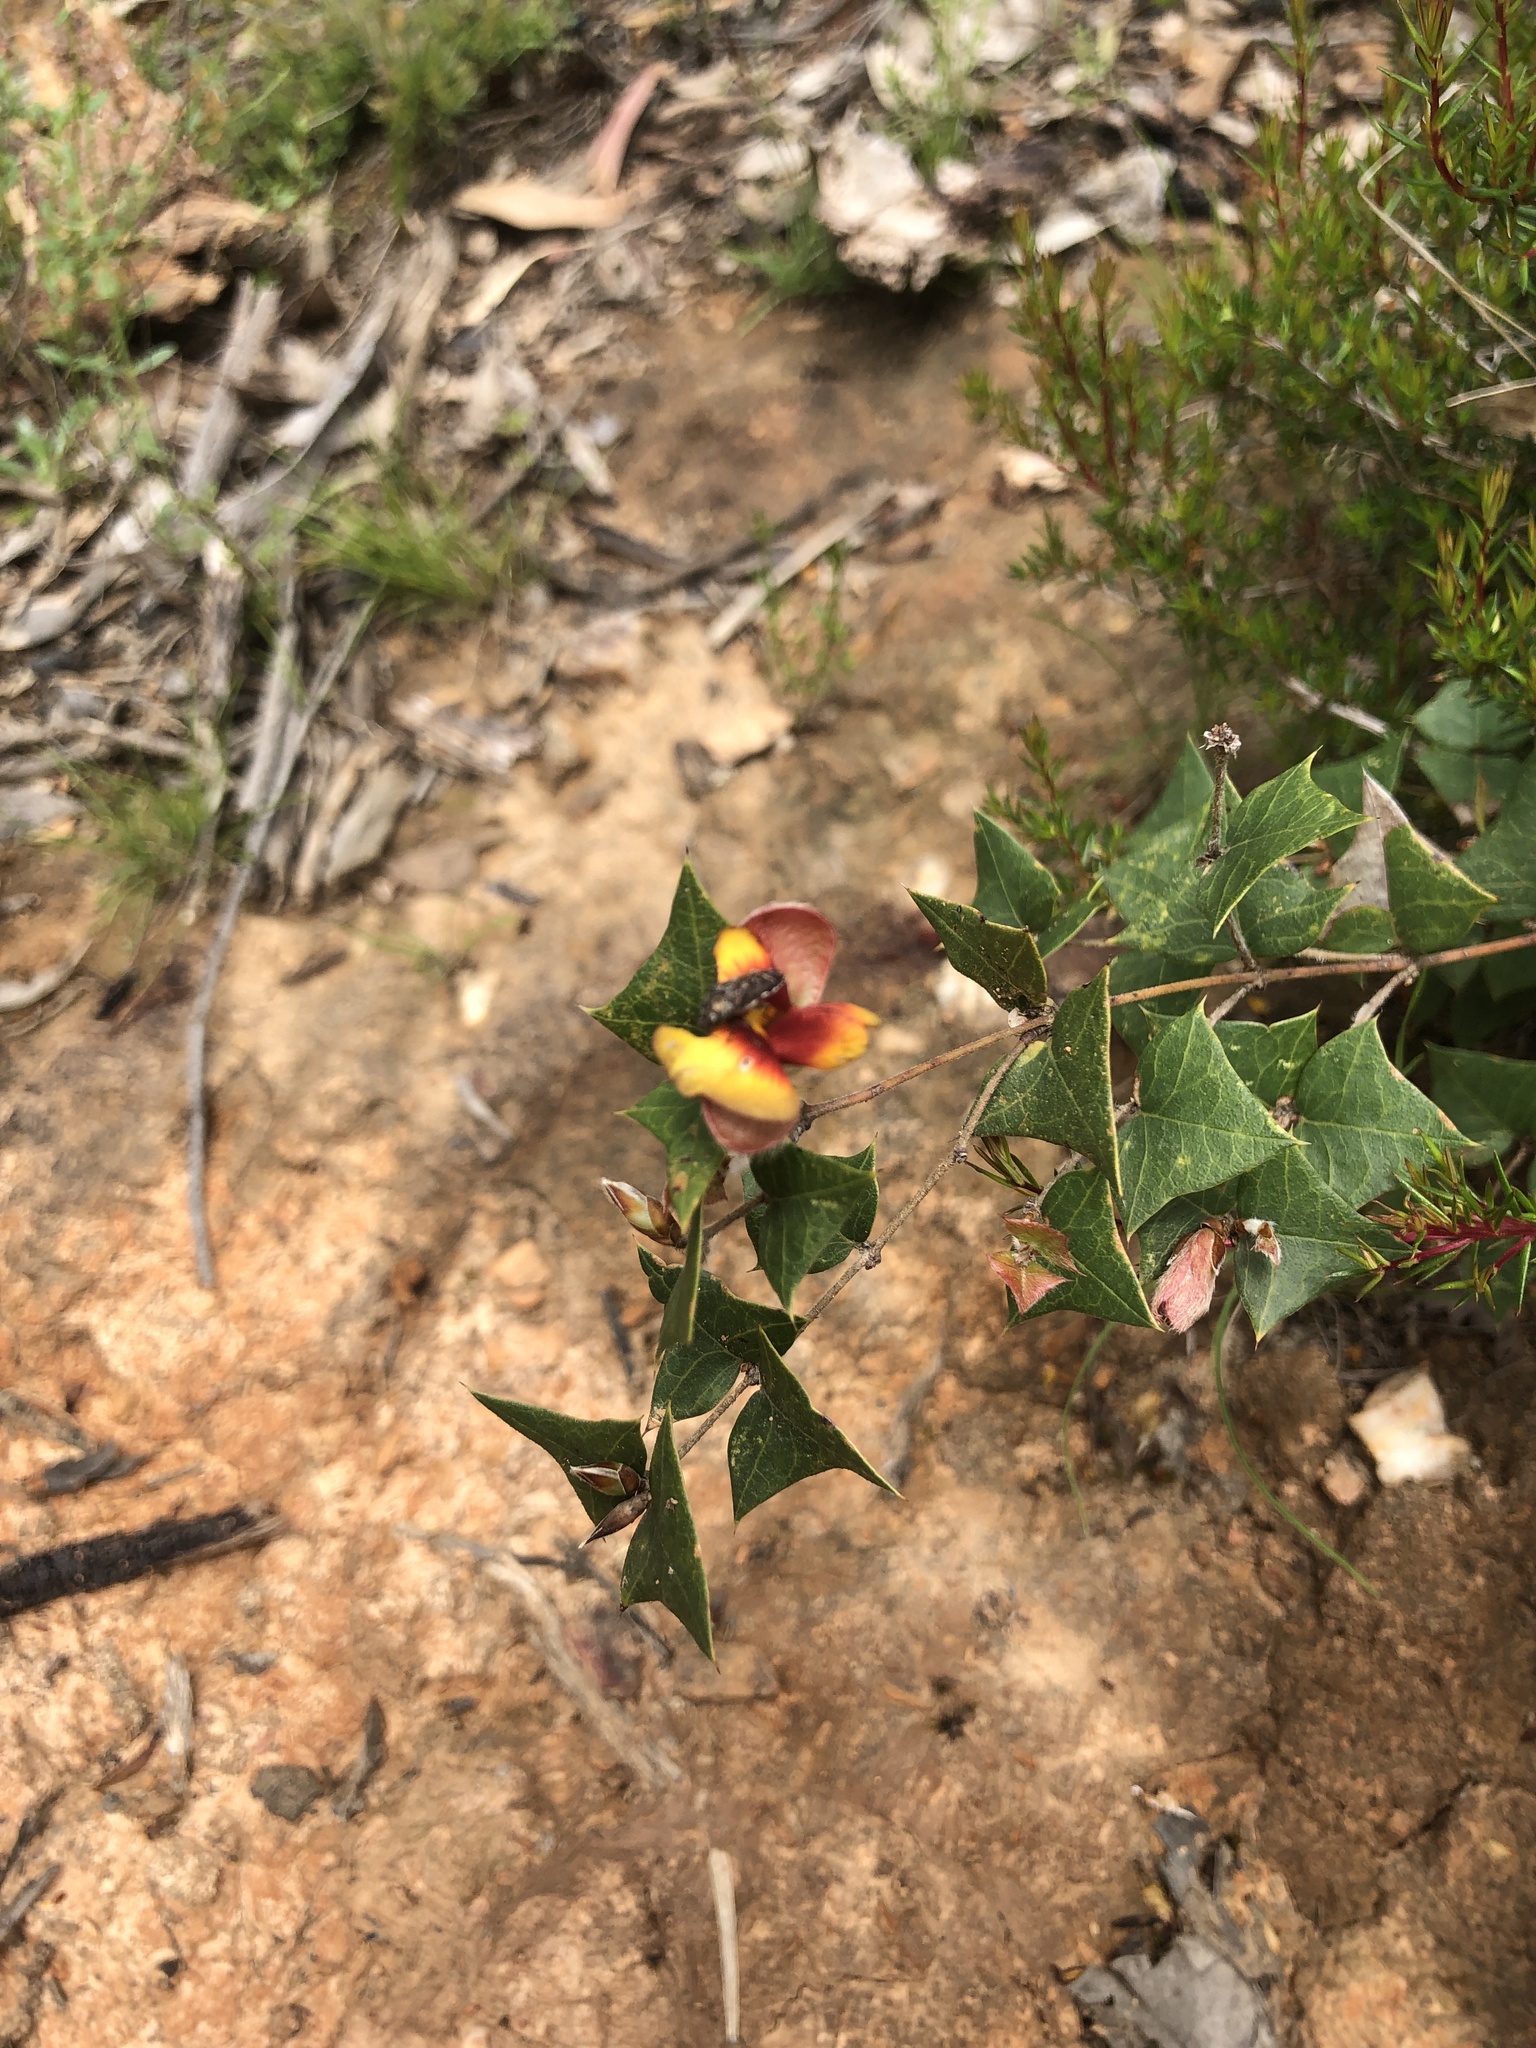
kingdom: Plantae
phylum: Tracheophyta
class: Magnoliopsida
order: Fabales
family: Fabaceae
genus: Platylobium
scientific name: Platylobium obtusangulum
